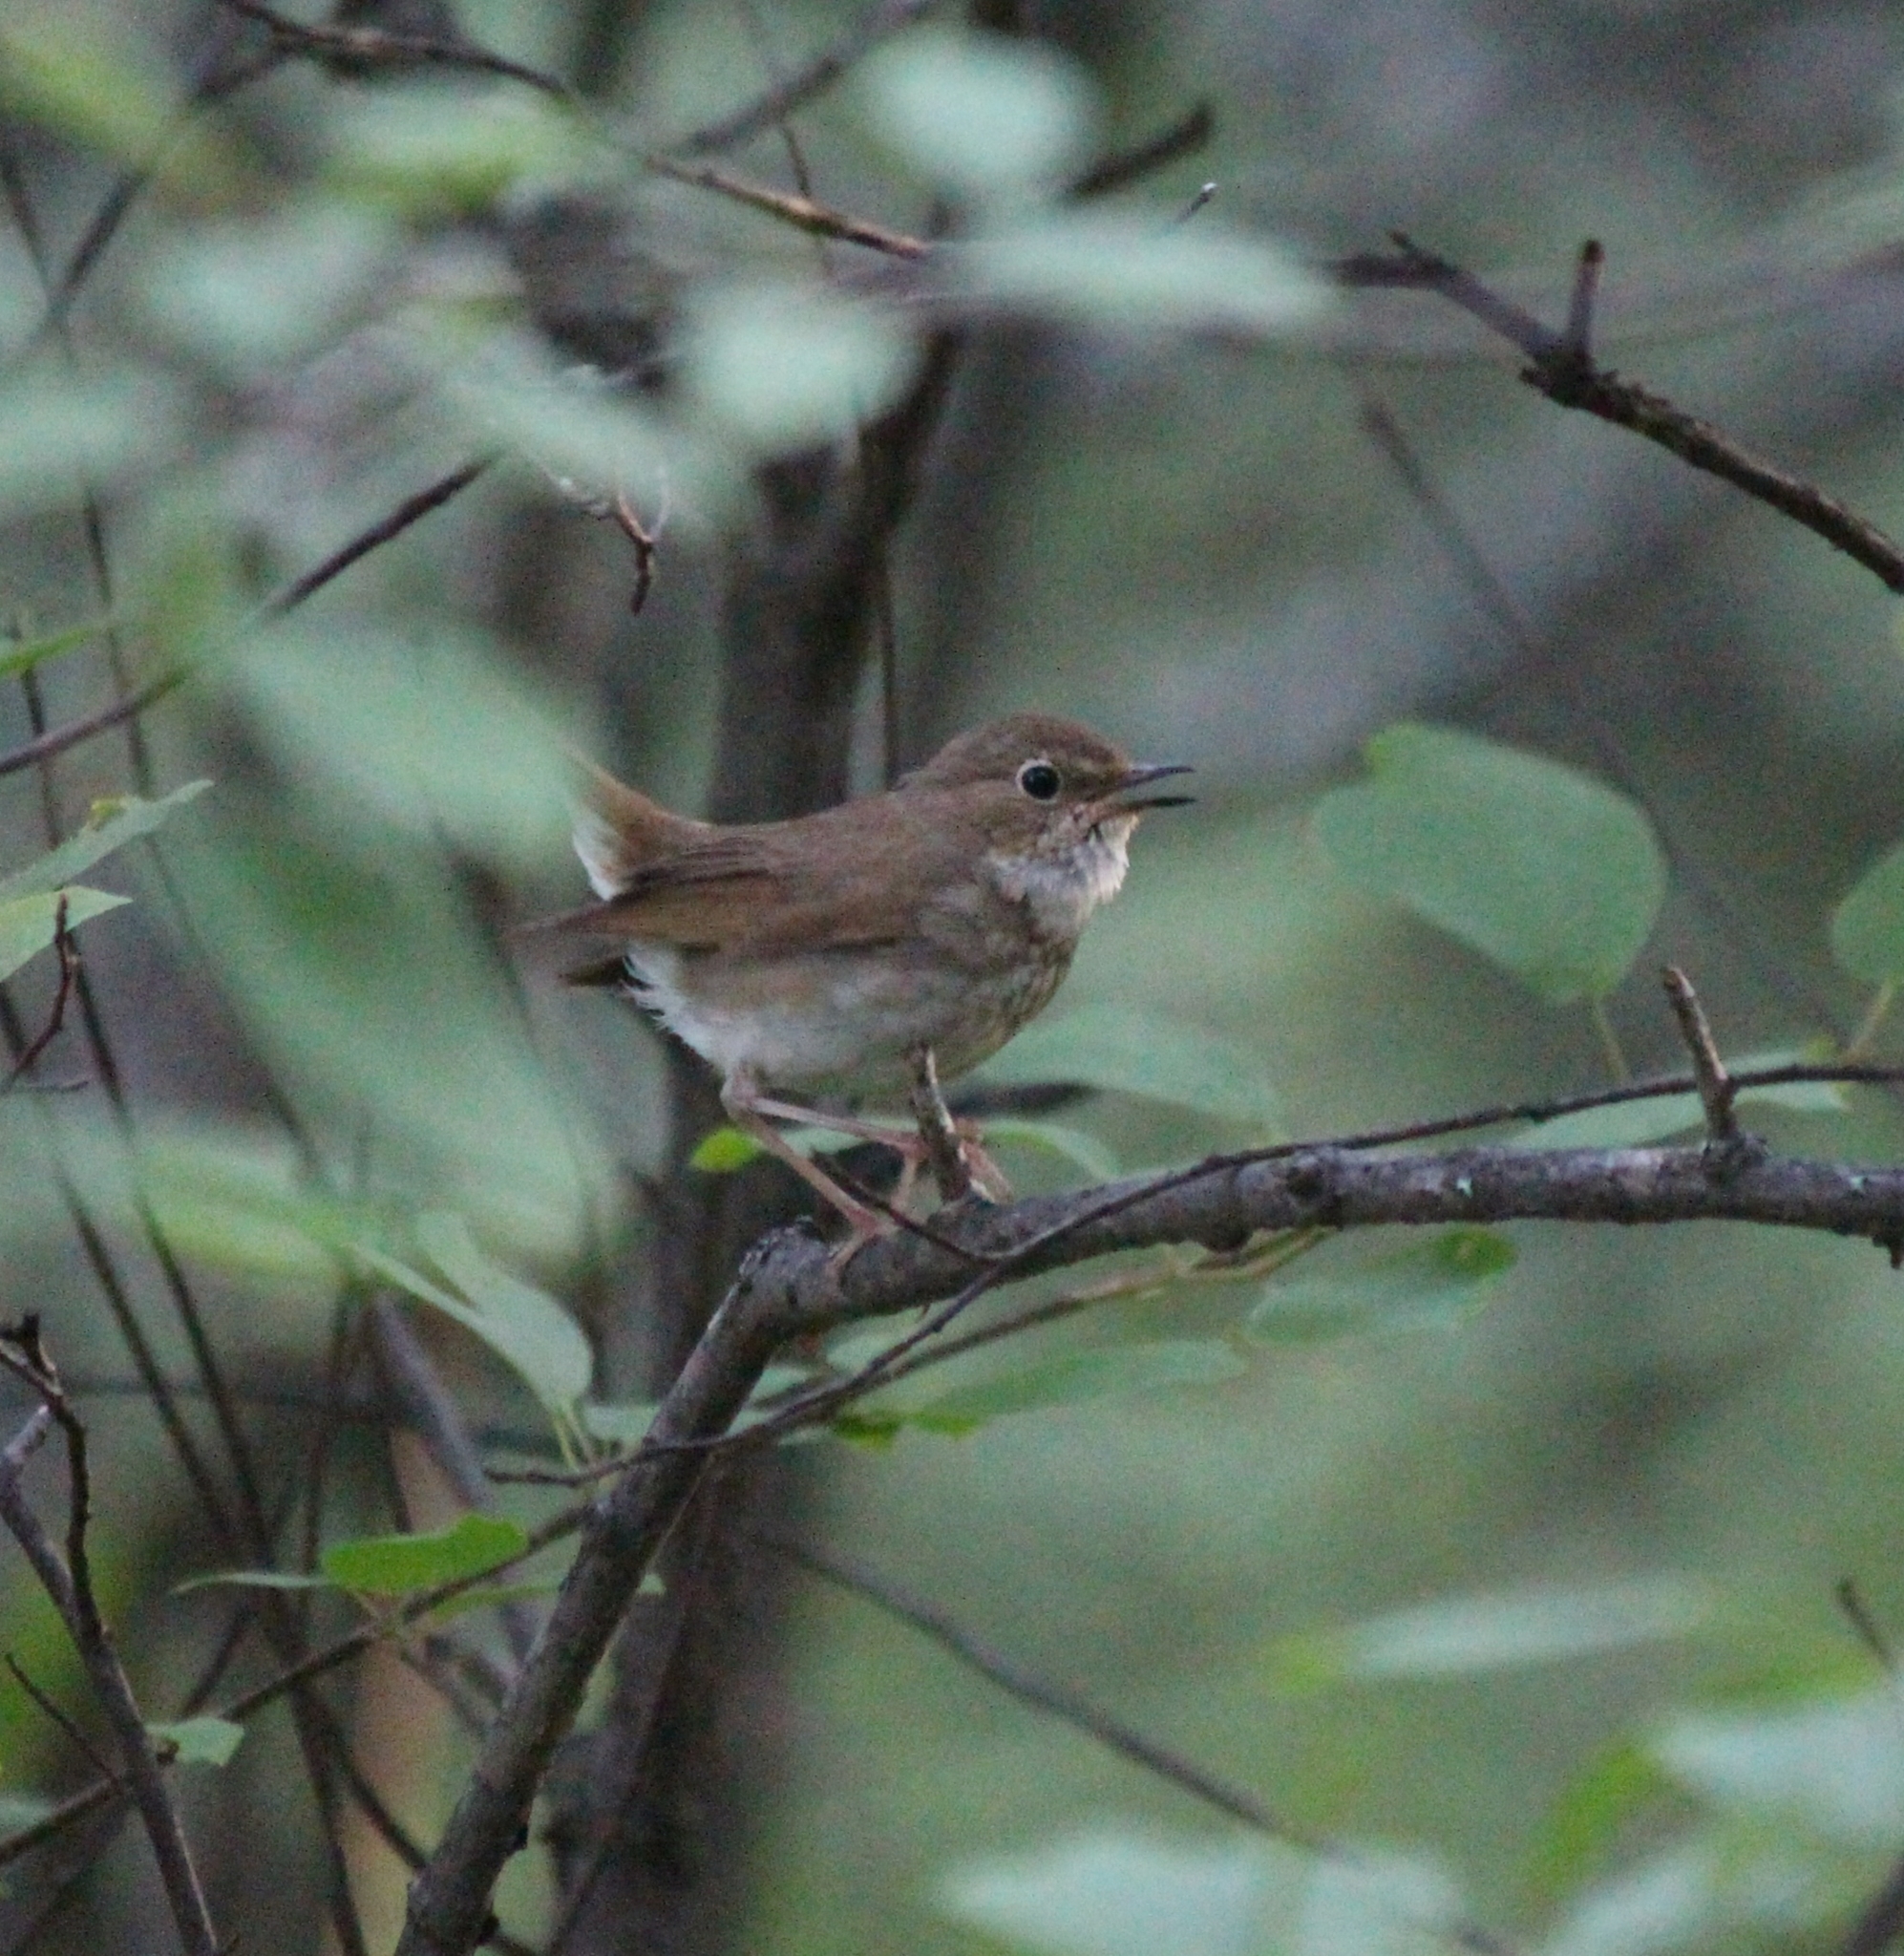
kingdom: Animalia
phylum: Chordata
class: Aves
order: Passeriformes
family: Muscicapidae
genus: Larvivora
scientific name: Larvivora sibilans
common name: Rufous-tailed robin
